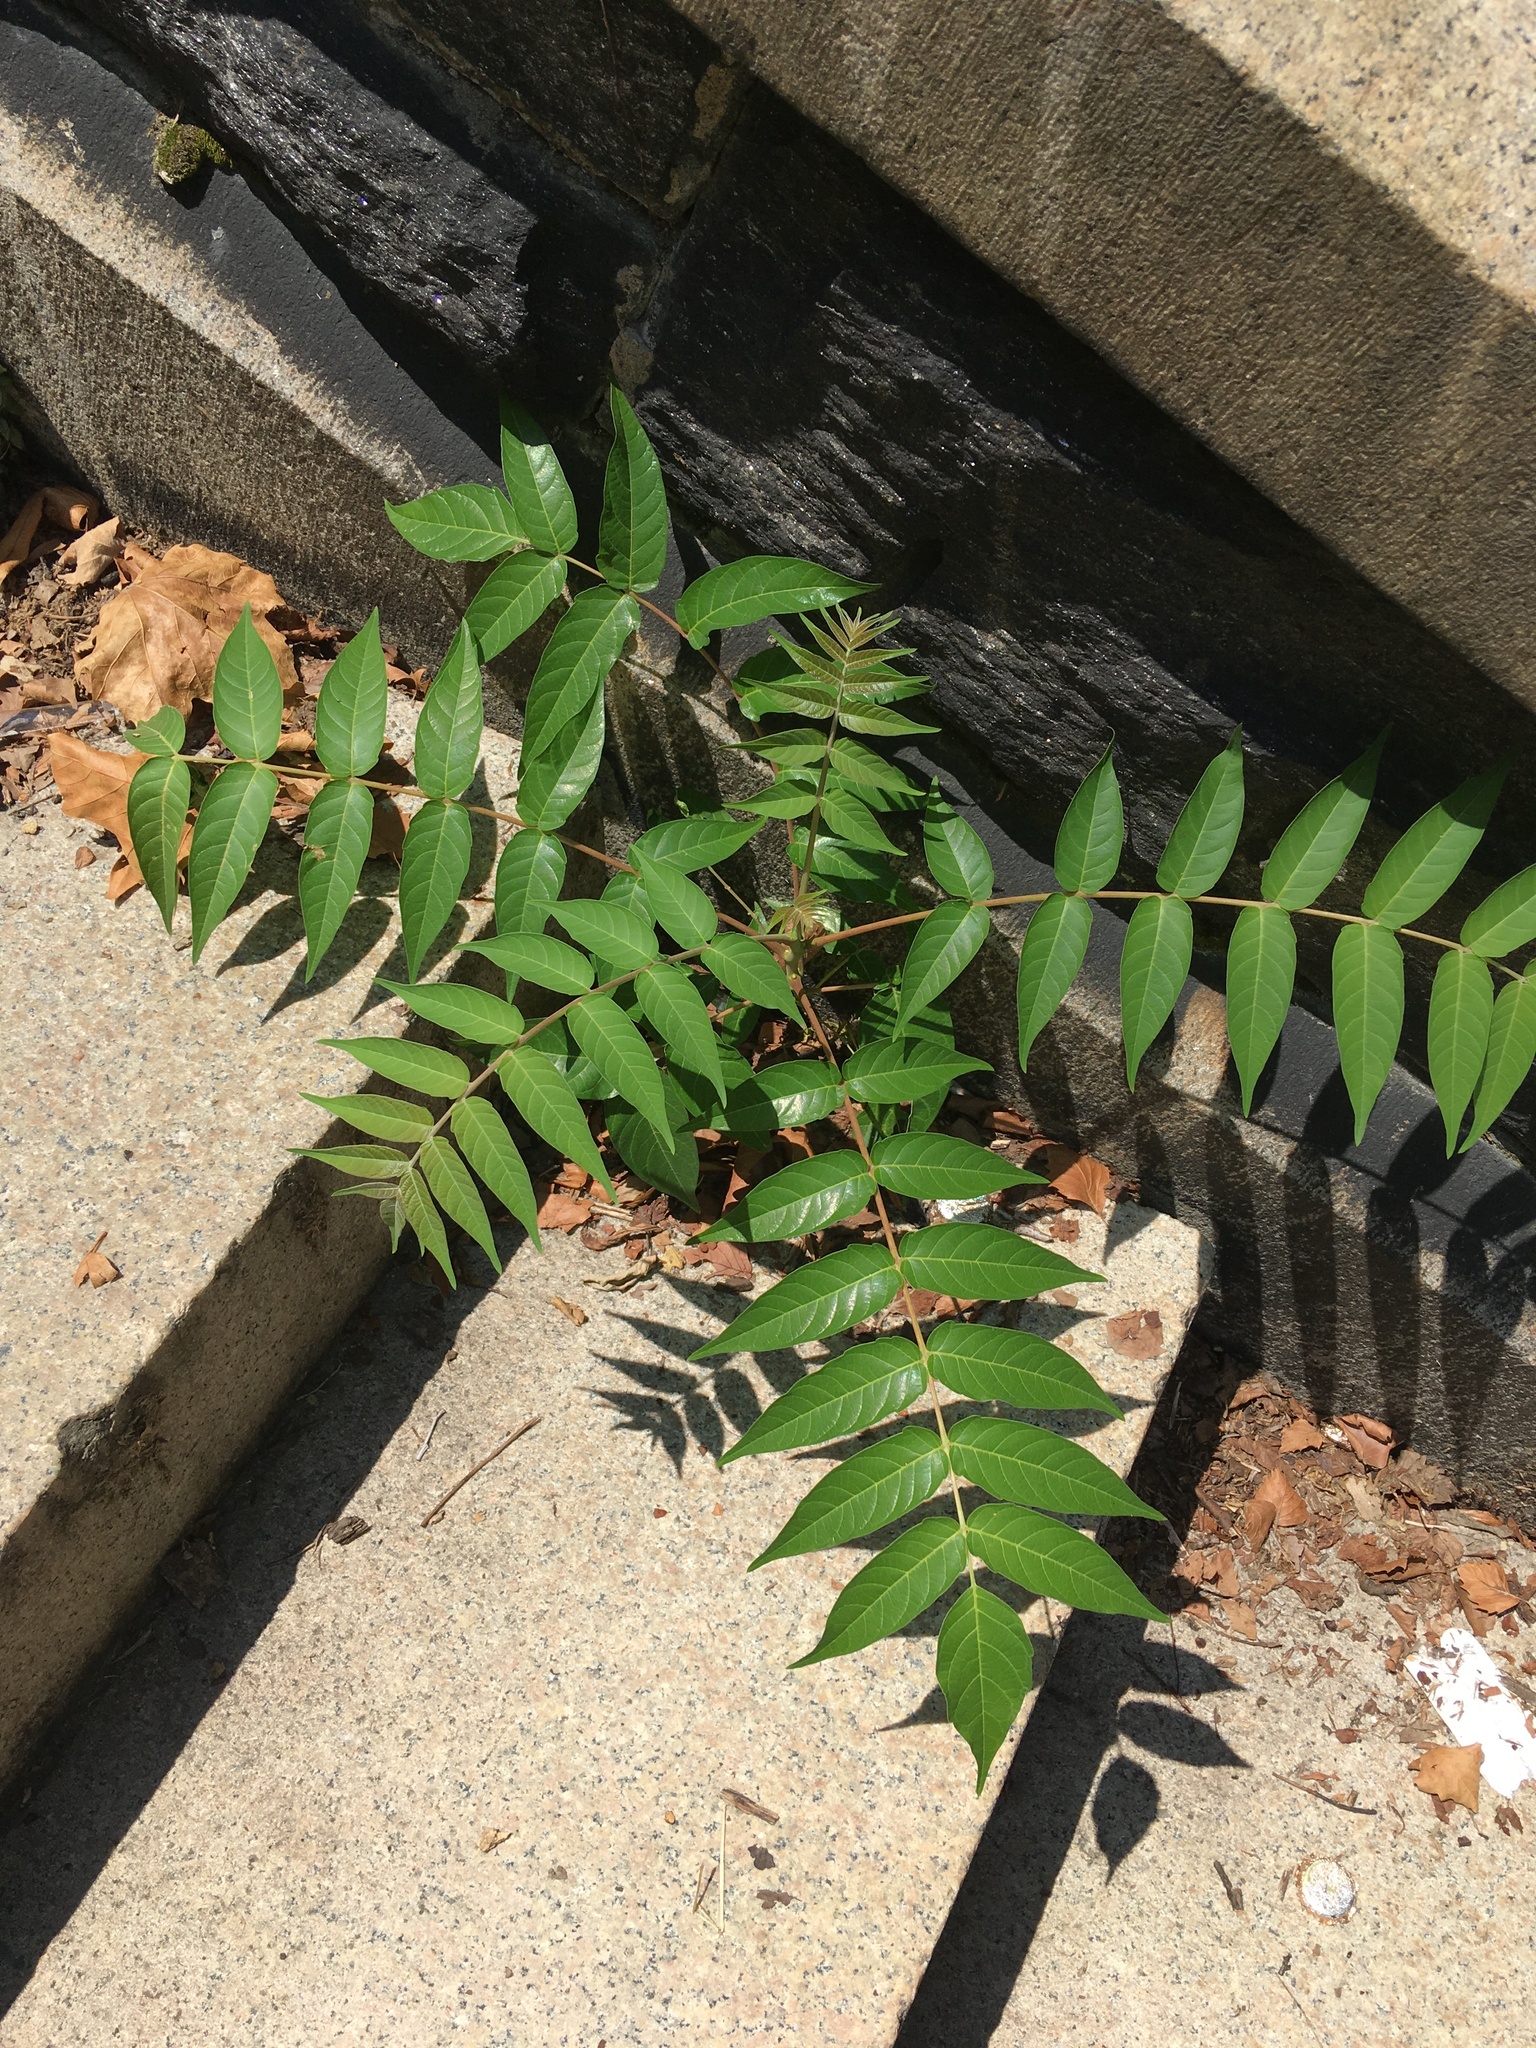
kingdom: Plantae
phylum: Tracheophyta
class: Magnoliopsida
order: Sapindales
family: Simaroubaceae
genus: Ailanthus
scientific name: Ailanthus altissima
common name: Tree-of-heaven
